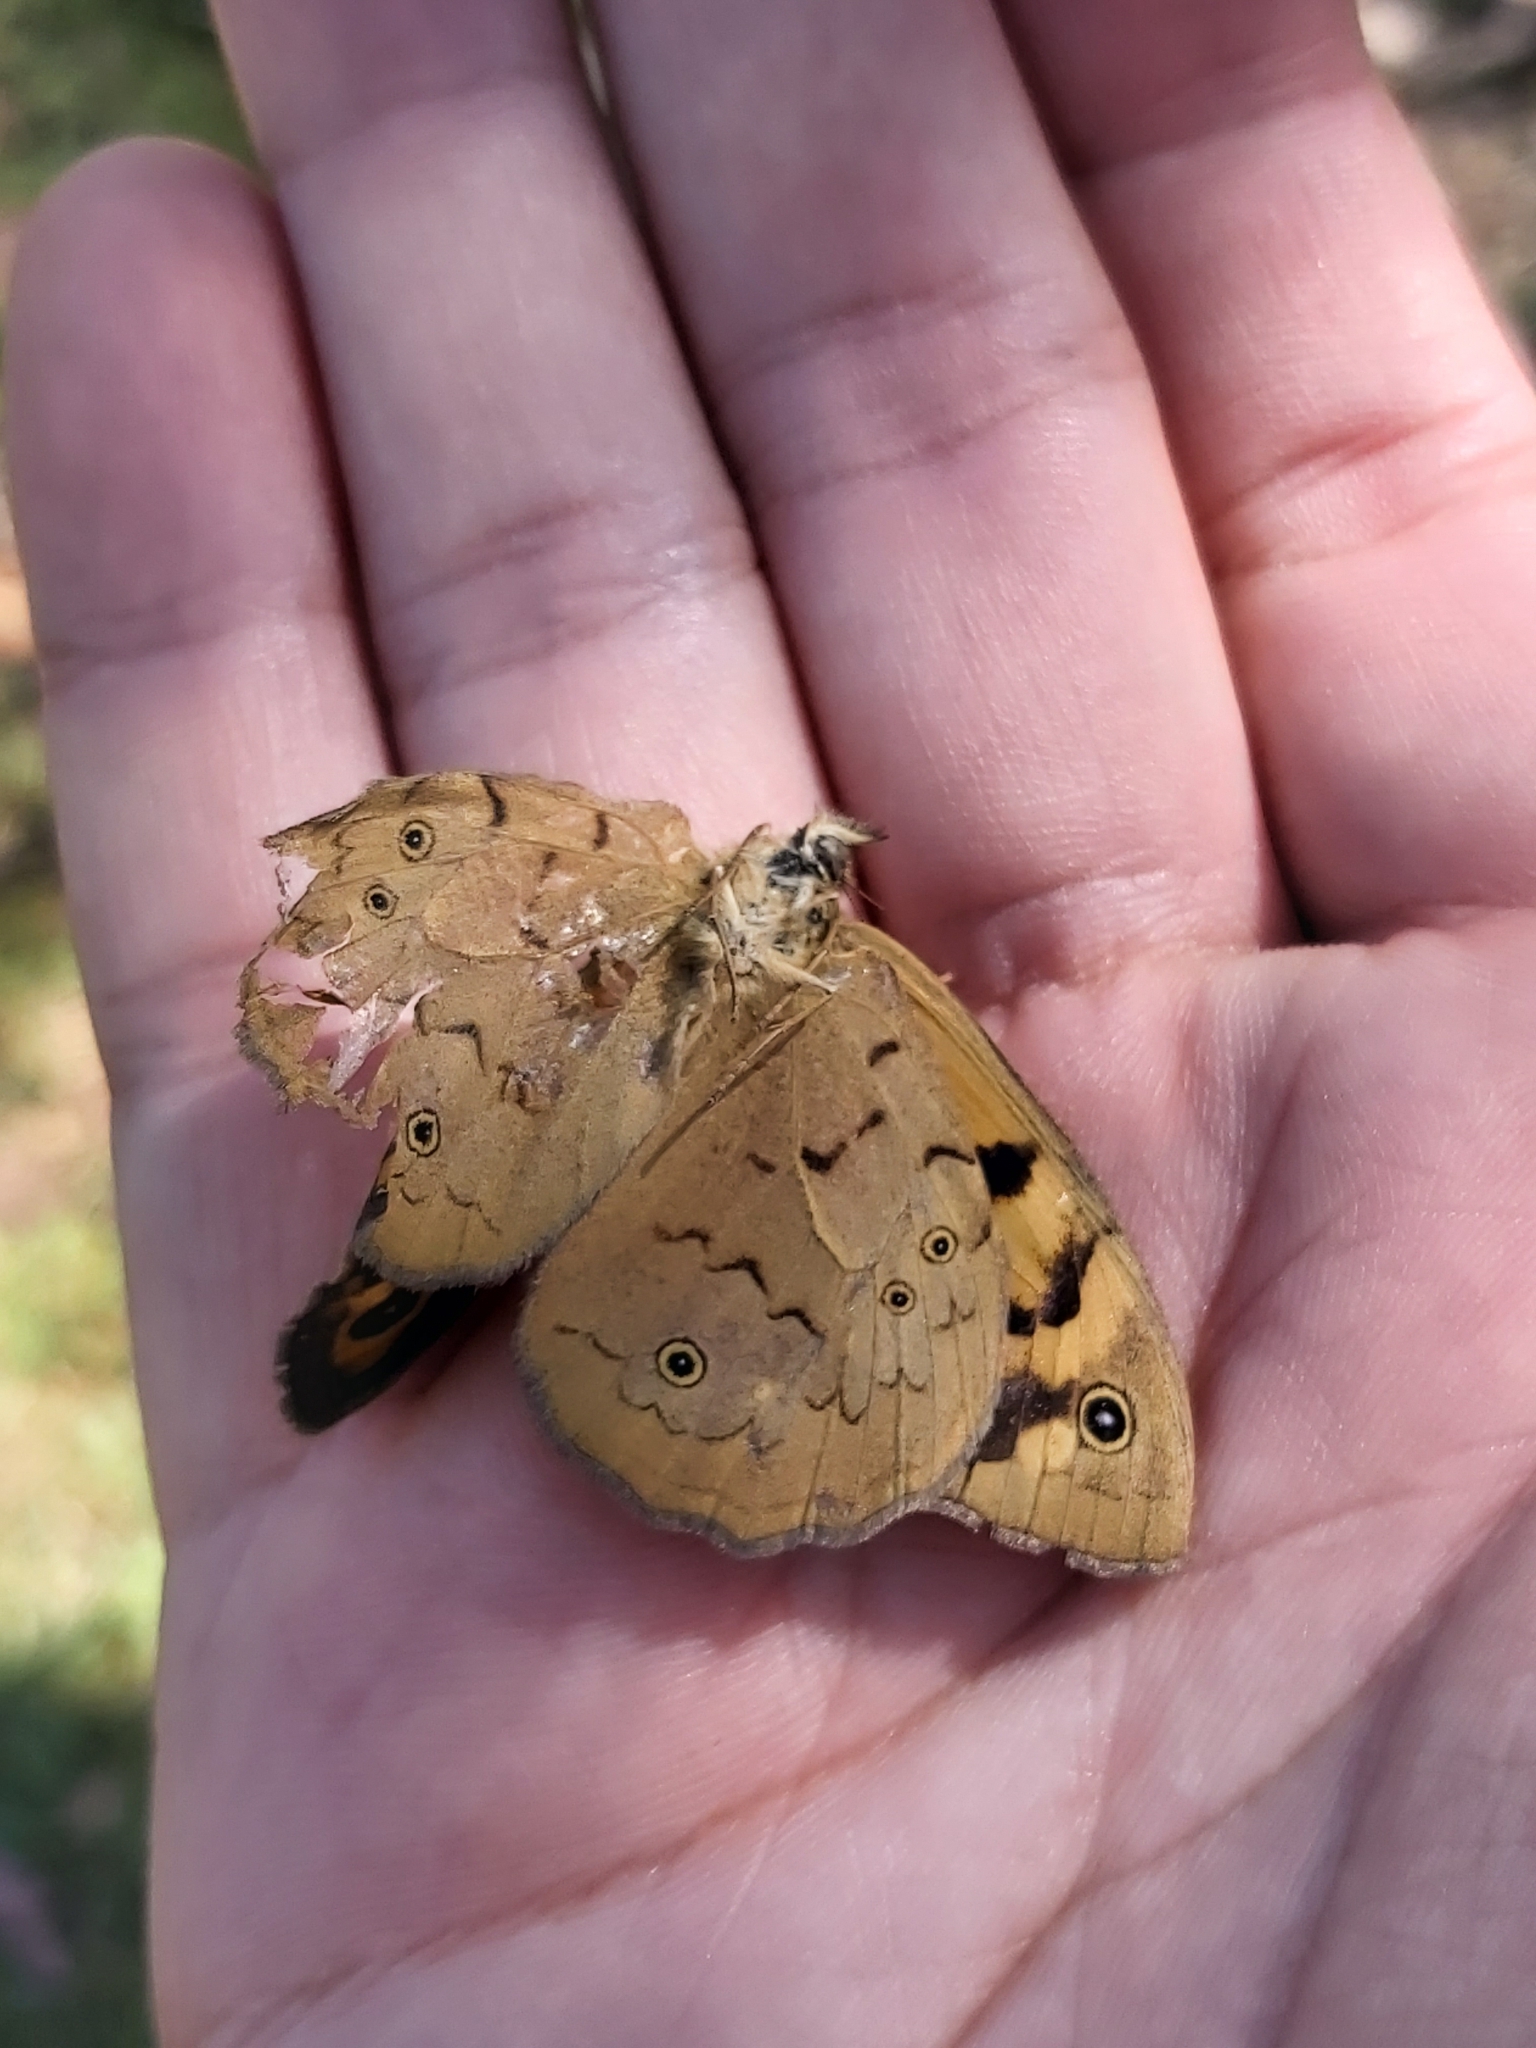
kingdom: Animalia
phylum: Arthropoda
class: Insecta
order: Lepidoptera
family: Nymphalidae
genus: Heteronympha
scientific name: Heteronympha merope
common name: Common brown
